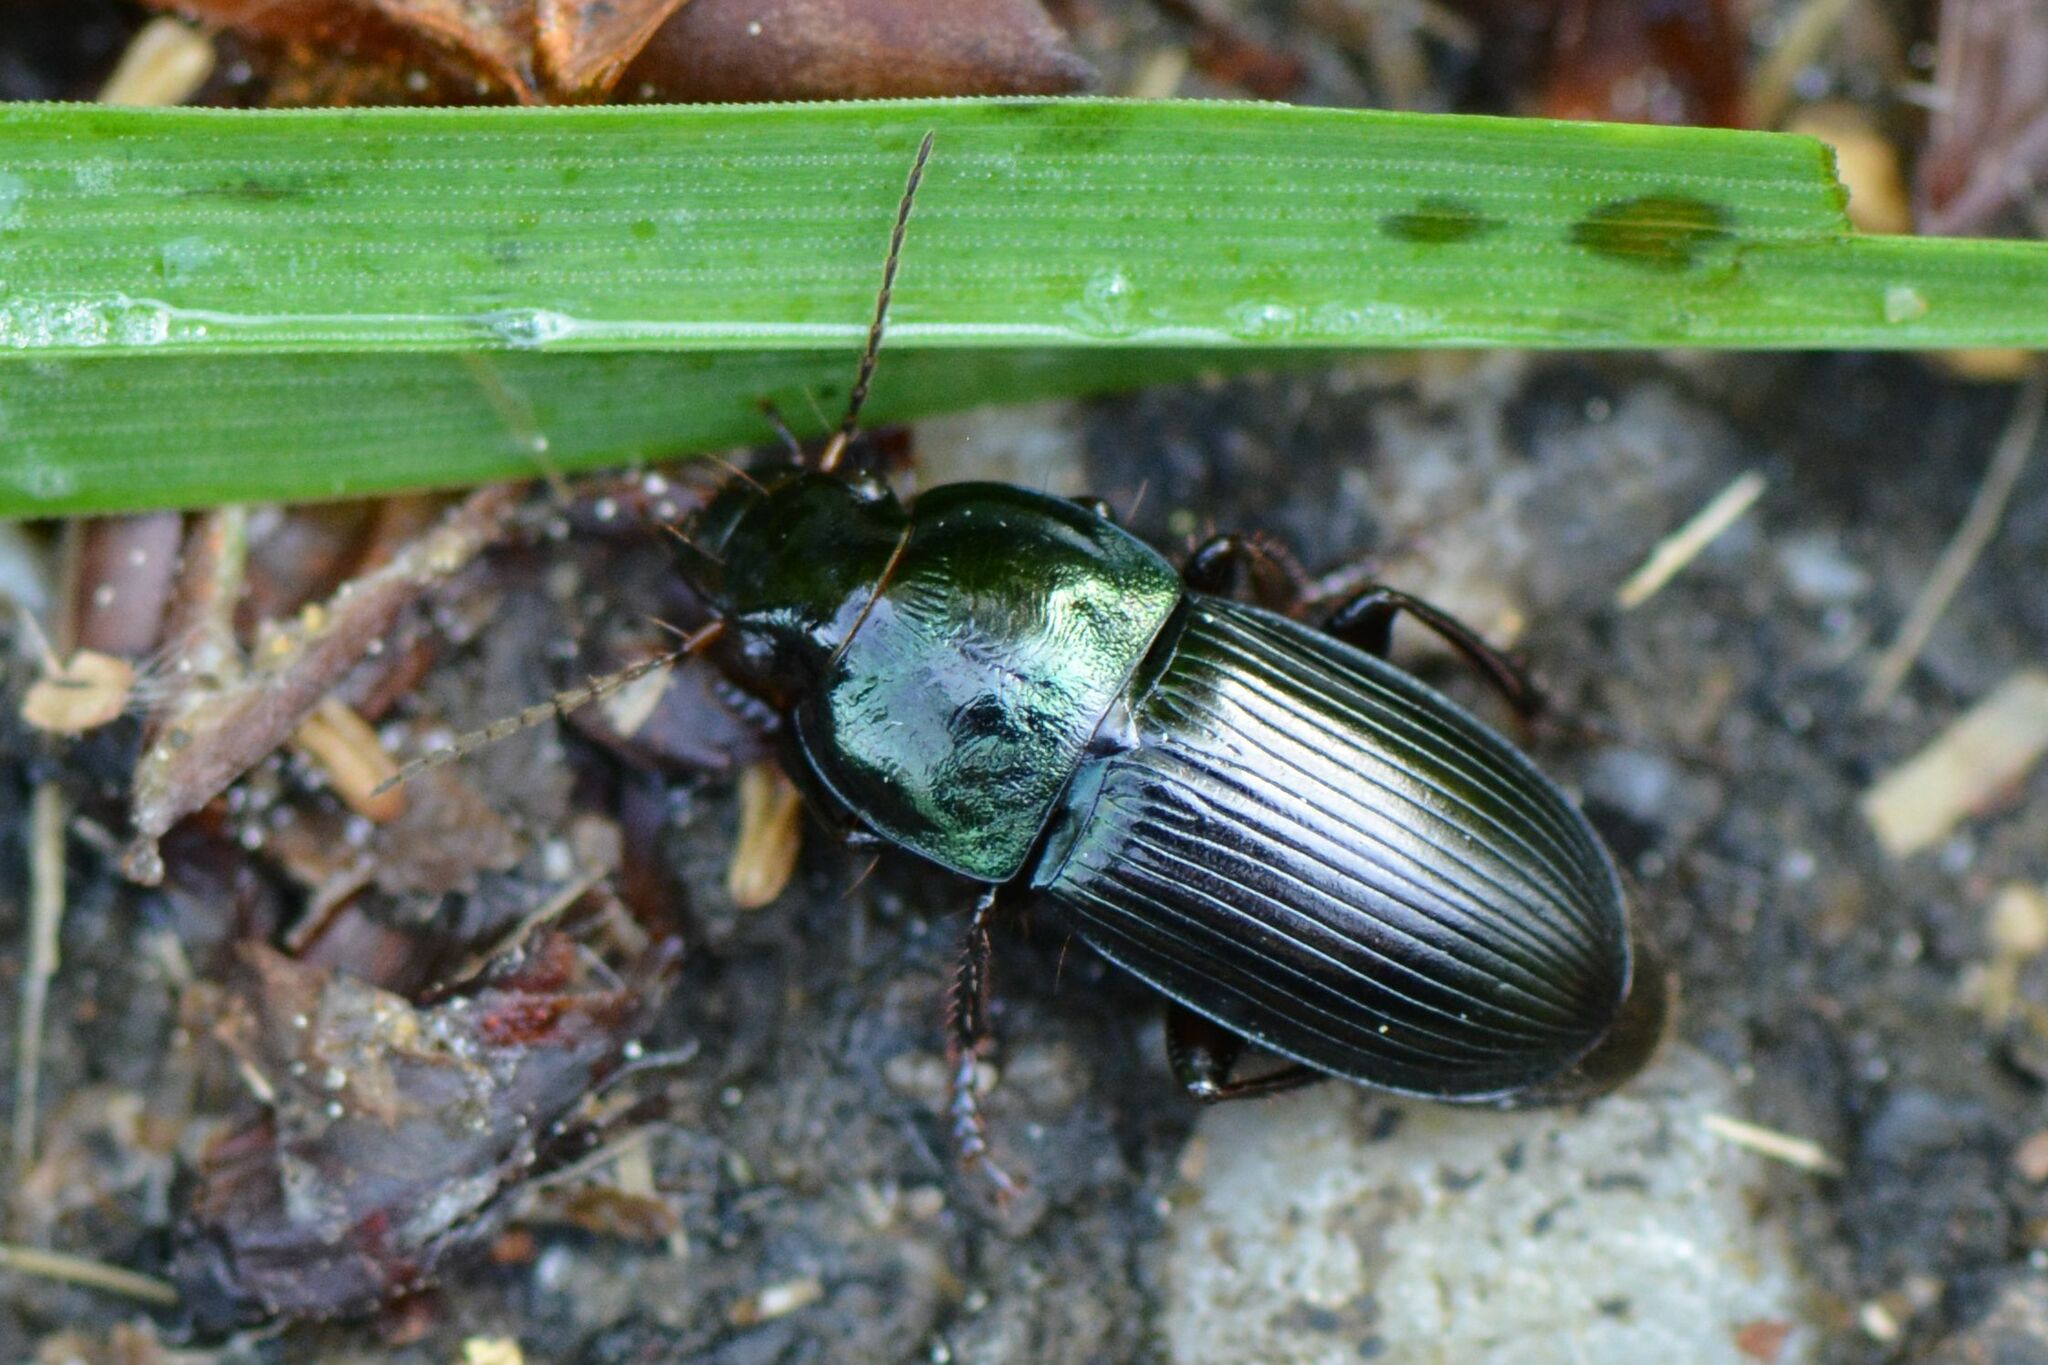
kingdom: Animalia
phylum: Arthropoda
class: Insecta
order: Coleoptera
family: Carabidae
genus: Harpalus
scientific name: Harpalus dimidiatus
